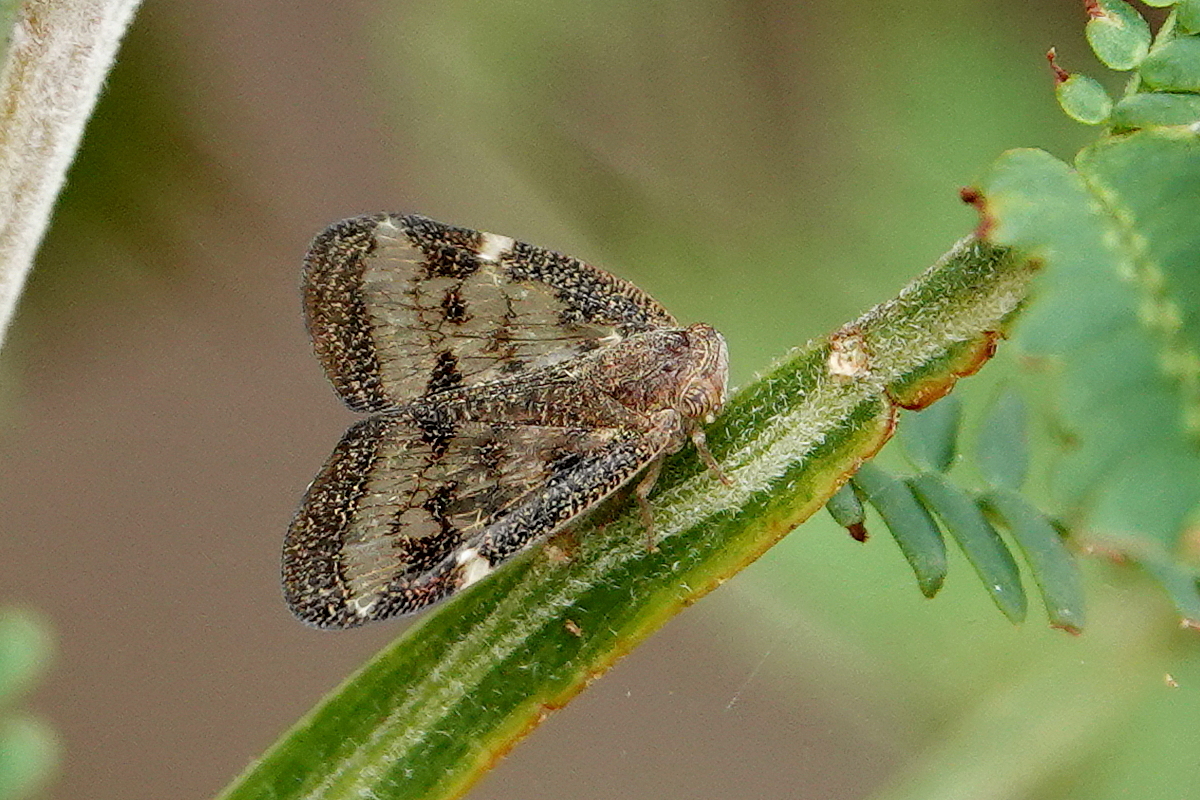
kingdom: Animalia
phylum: Arthropoda
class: Insecta
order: Hemiptera
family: Ricaniidae
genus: Scolypopa
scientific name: Scolypopa australis
